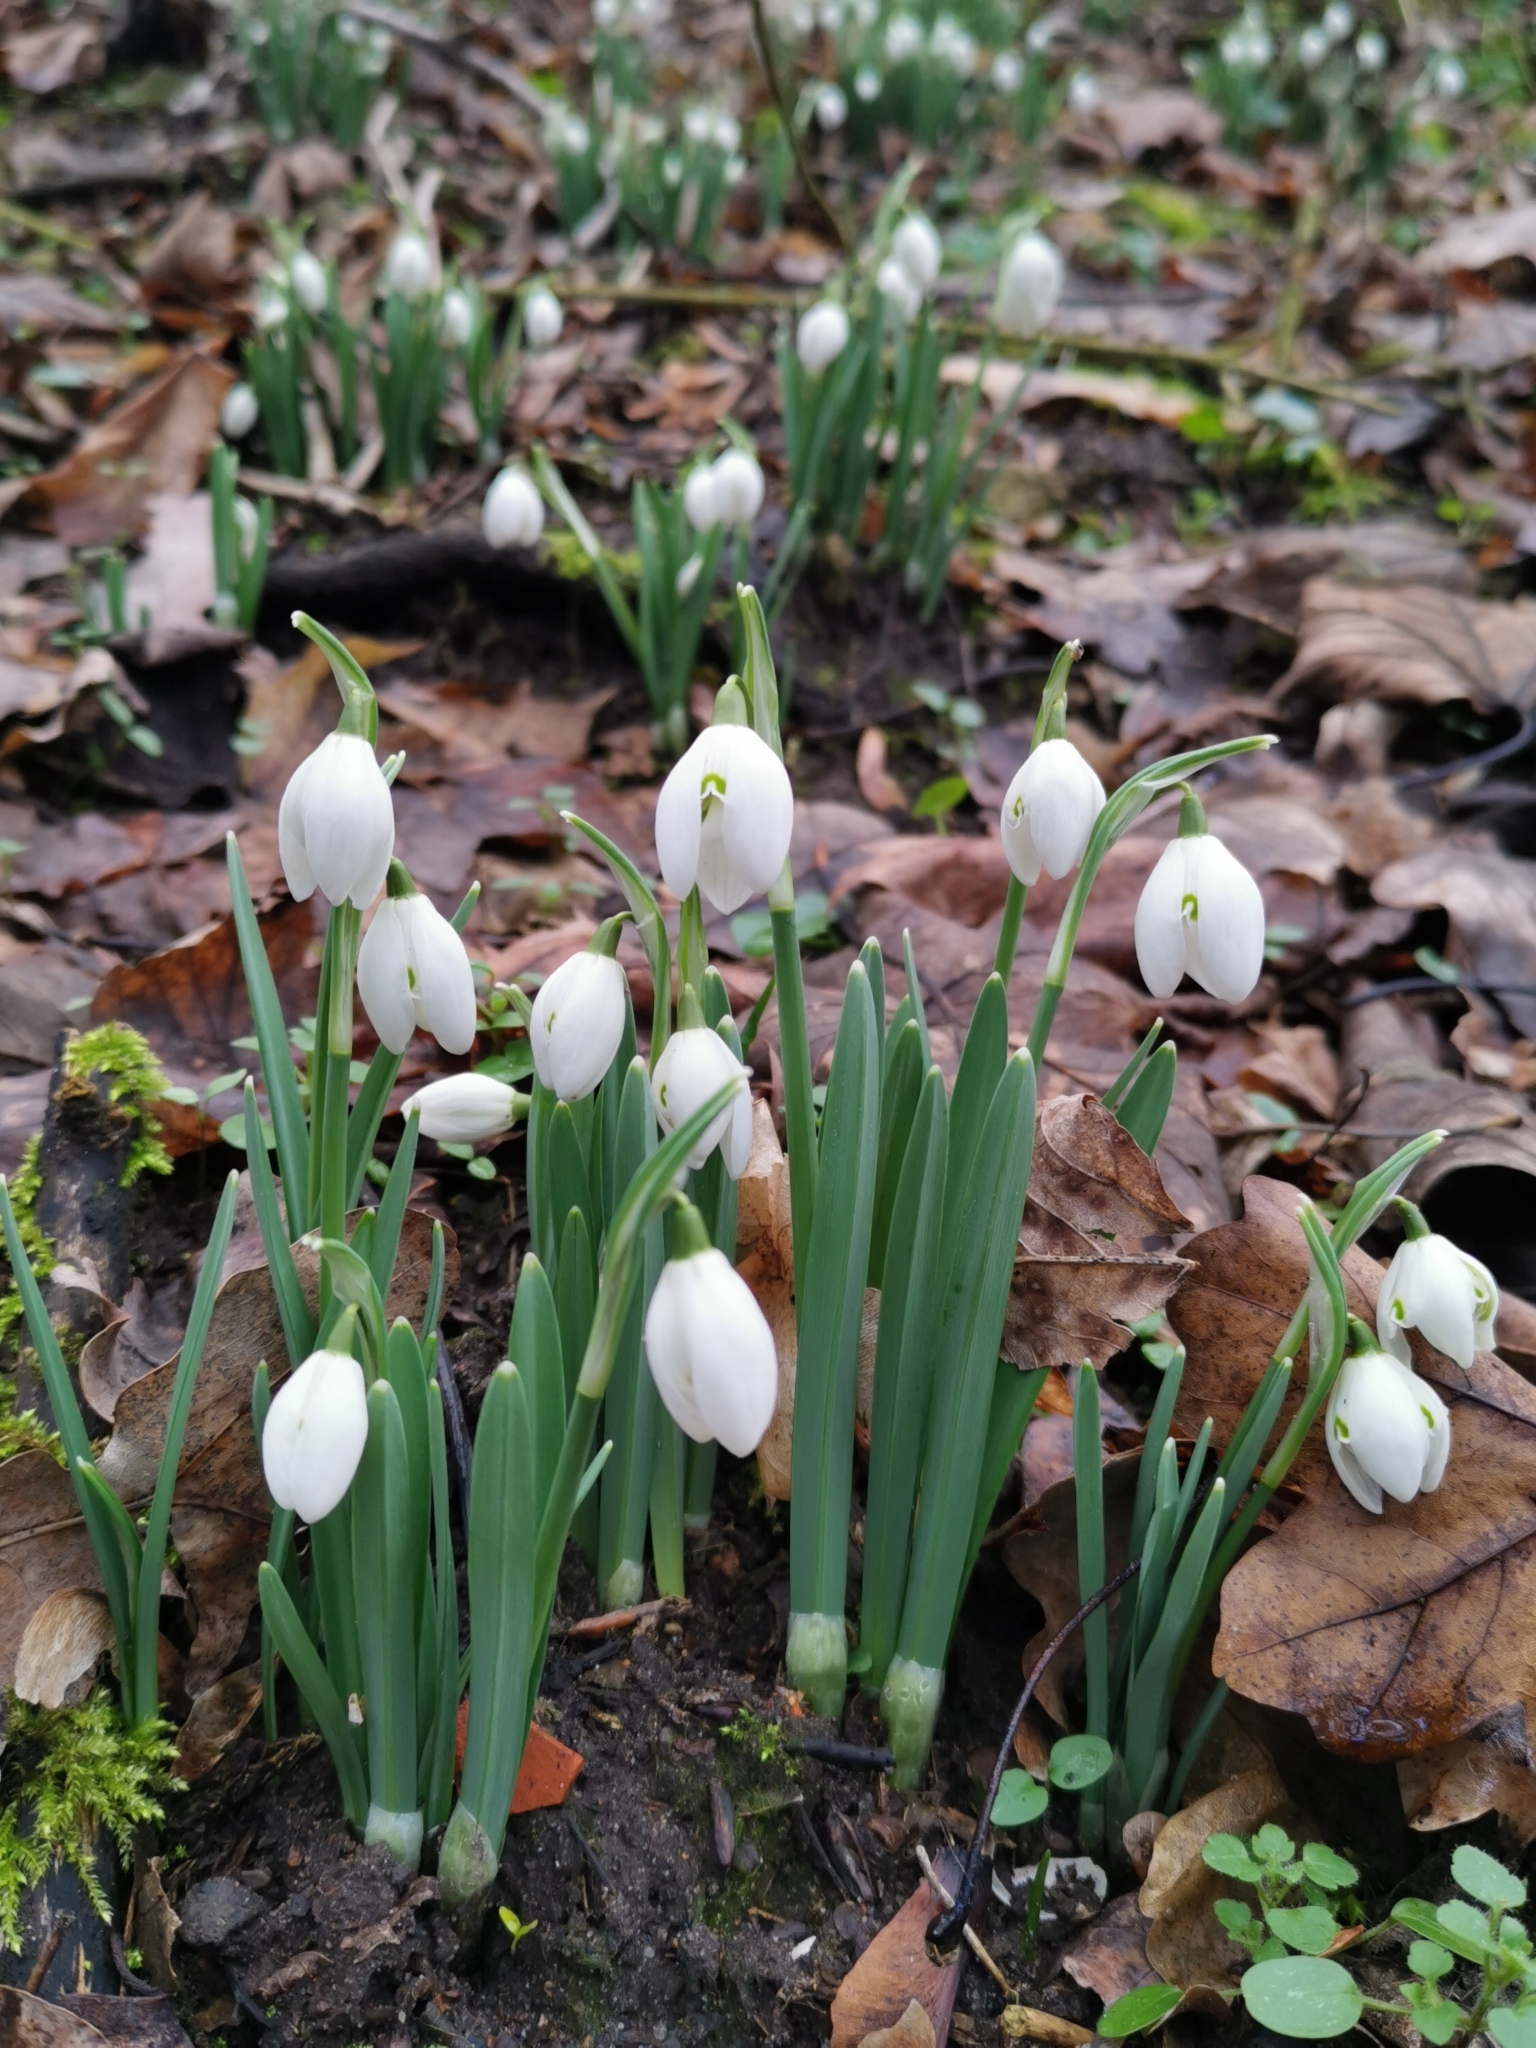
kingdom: Plantae
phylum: Tracheophyta
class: Liliopsida
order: Asparagales
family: Amaryllidaceae
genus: Galanthus
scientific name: Galanthus nivalis
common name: Snowdrop
